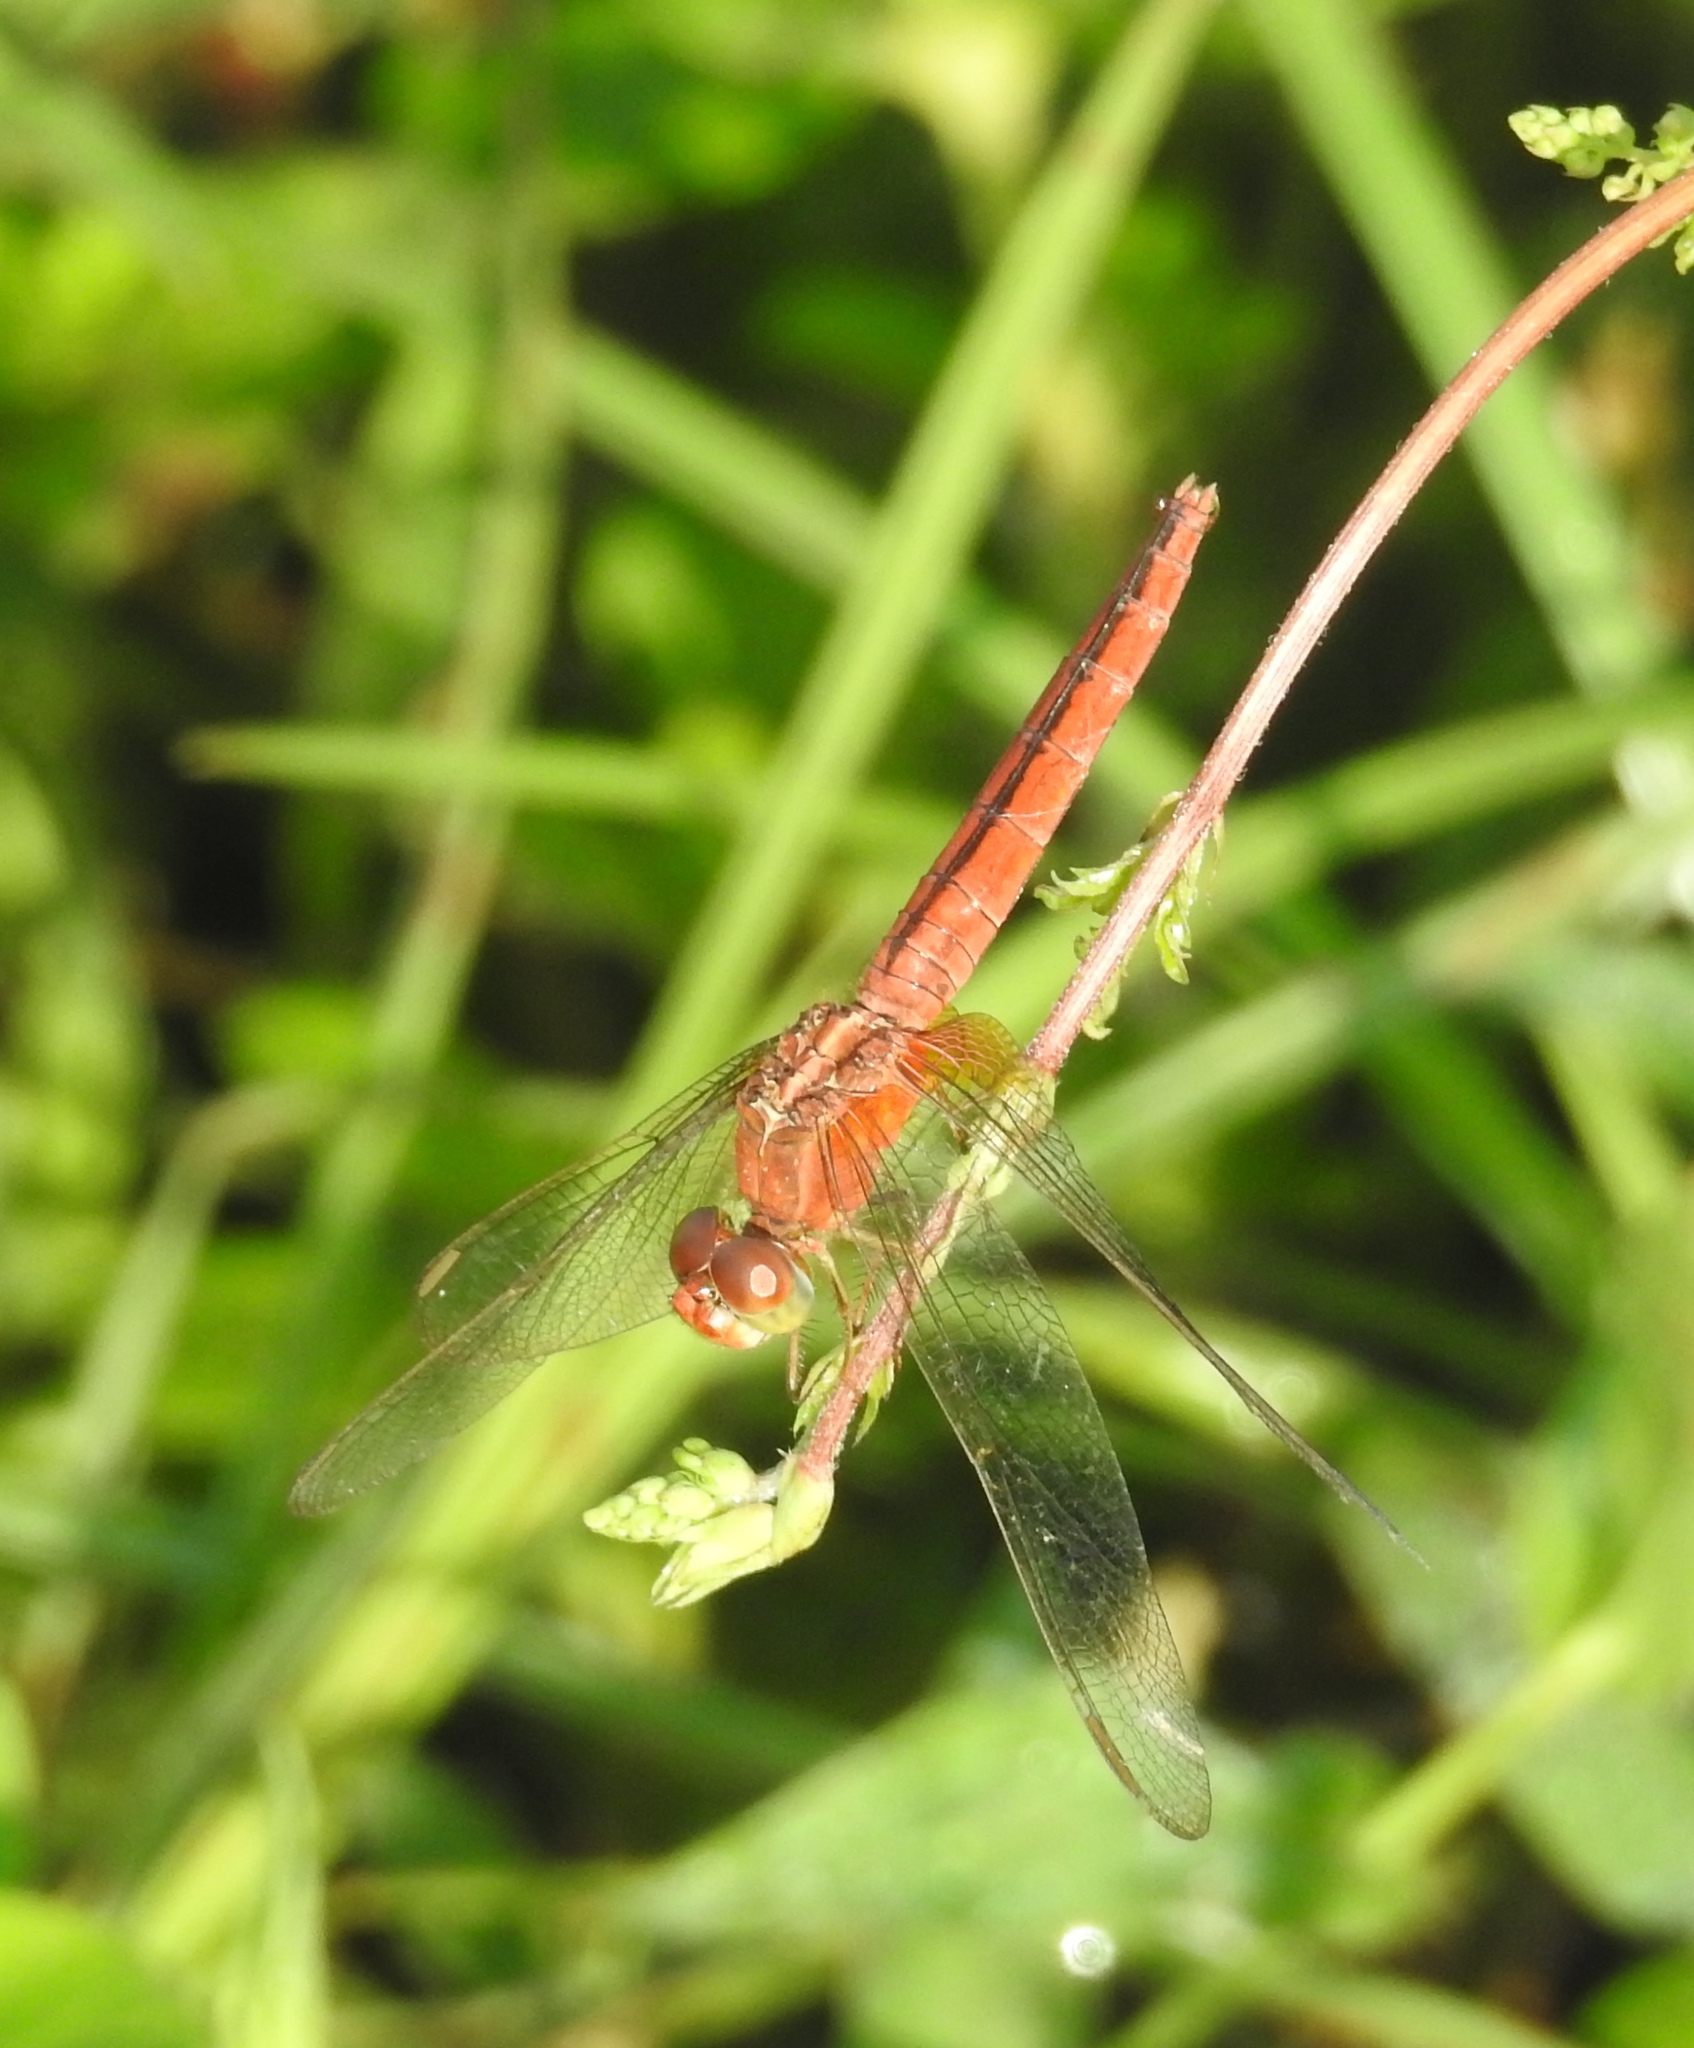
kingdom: Animalia
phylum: Arthropoda
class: Insecta
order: Odonata
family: Libellulidae
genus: Crocothemis
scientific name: Crocothemis servilia
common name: Scarlet skimmer
